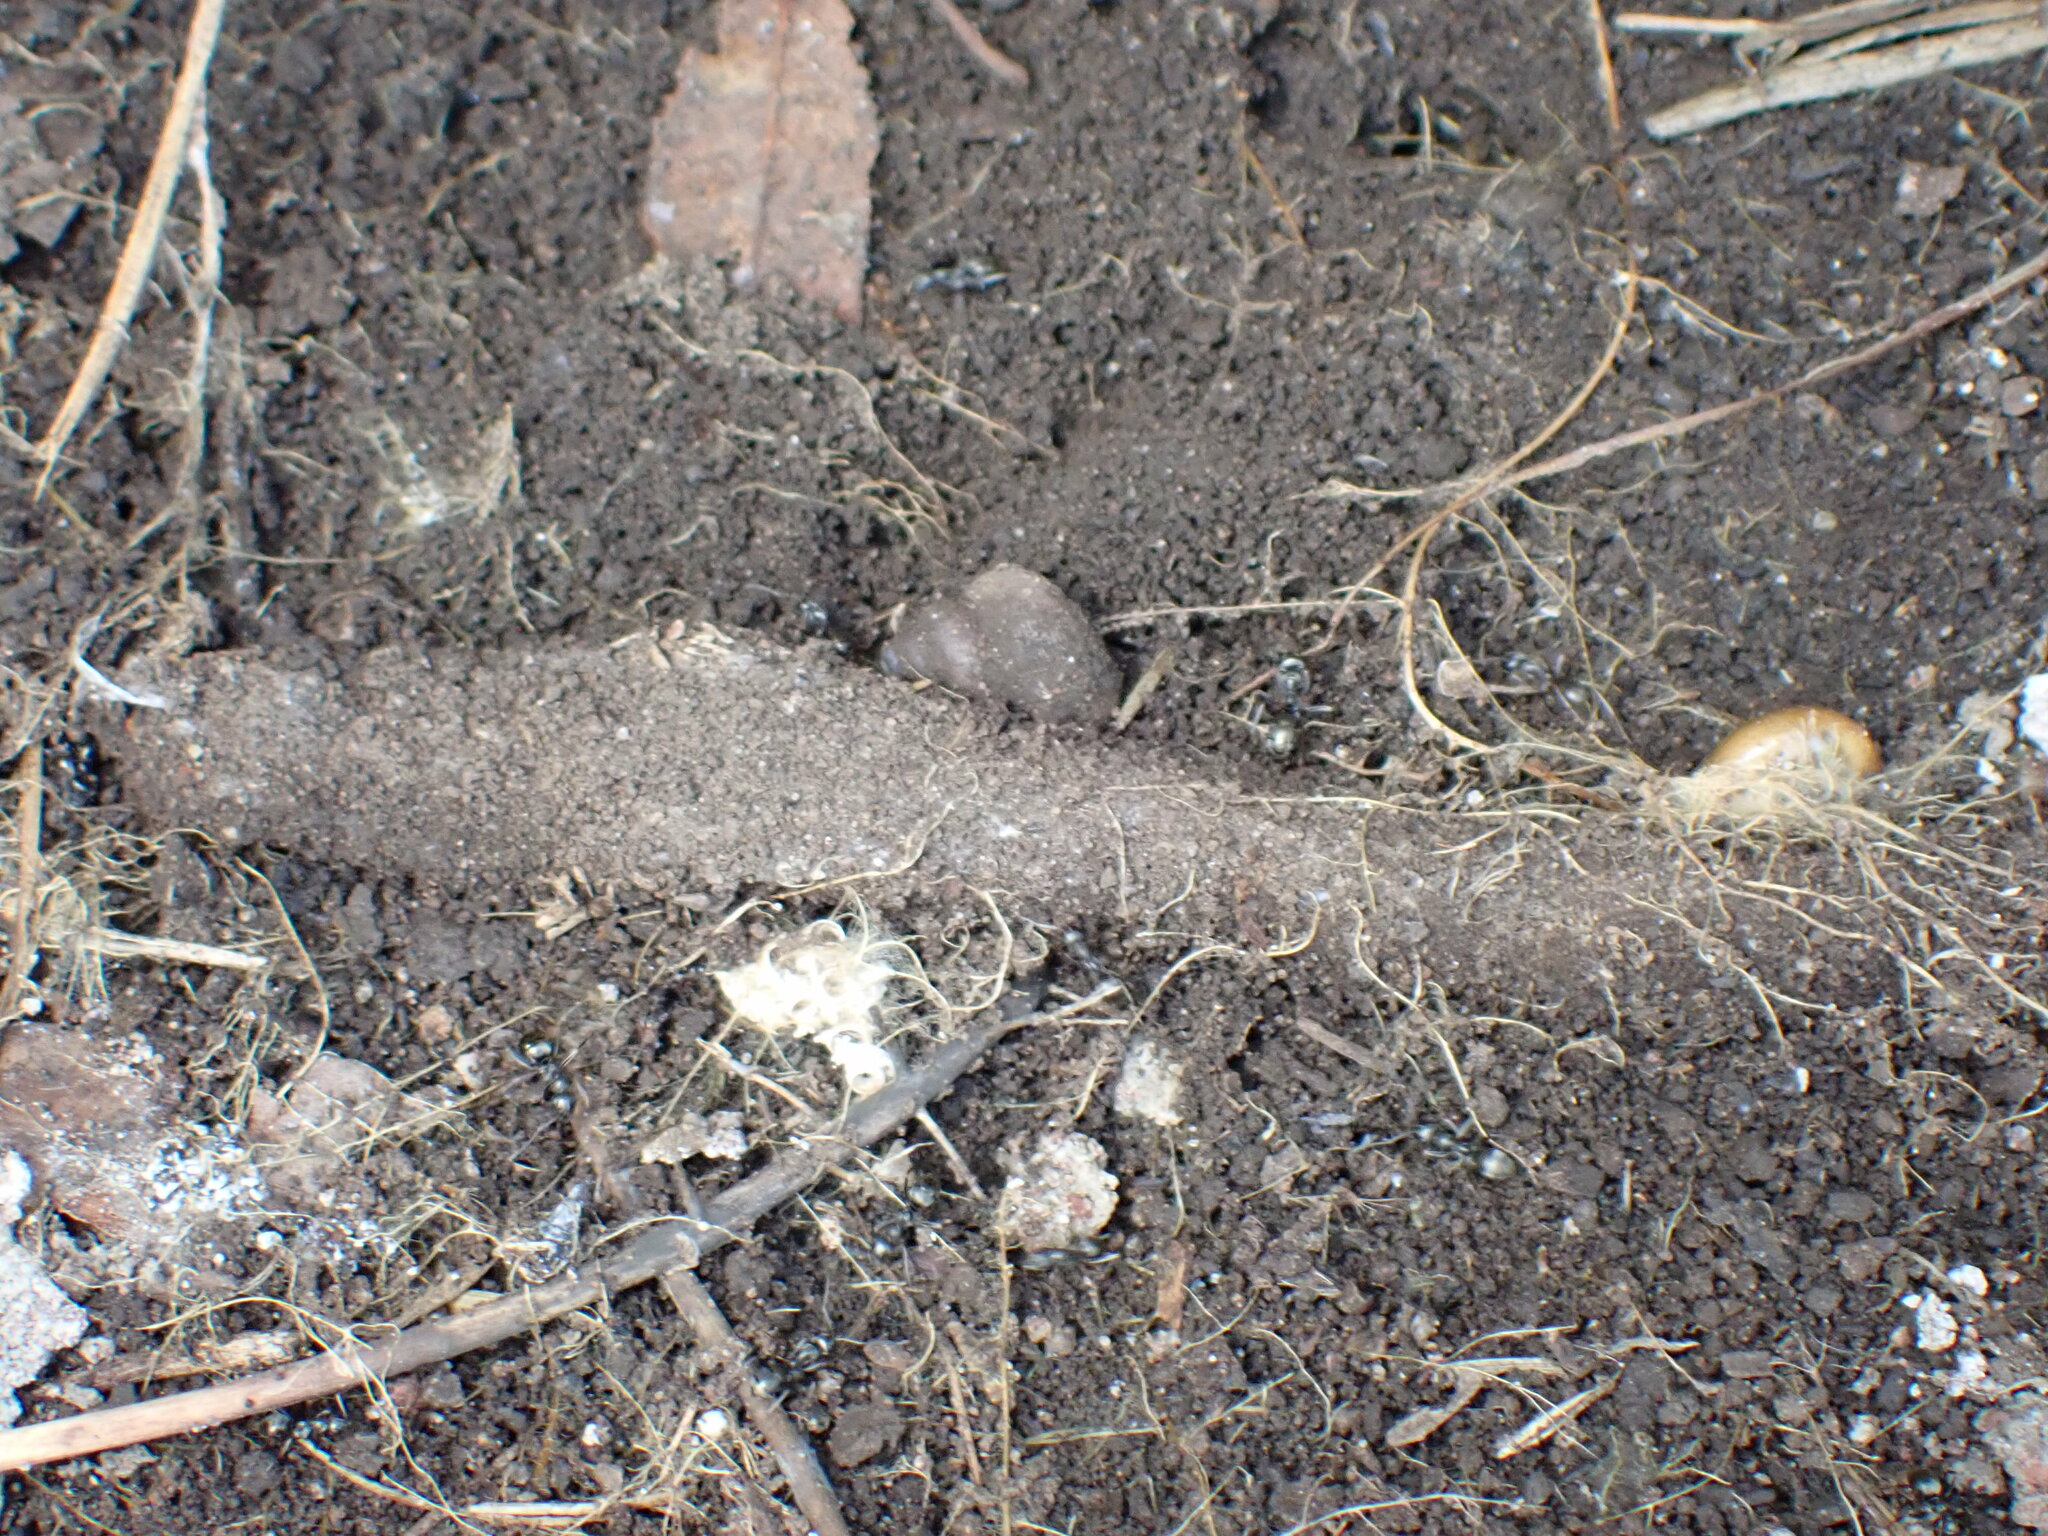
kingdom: Animalia
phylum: Arthropoda
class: Arachnida
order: Araneae
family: Atypidae
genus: Atypus
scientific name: Atypus affinis
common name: Purse web spider
